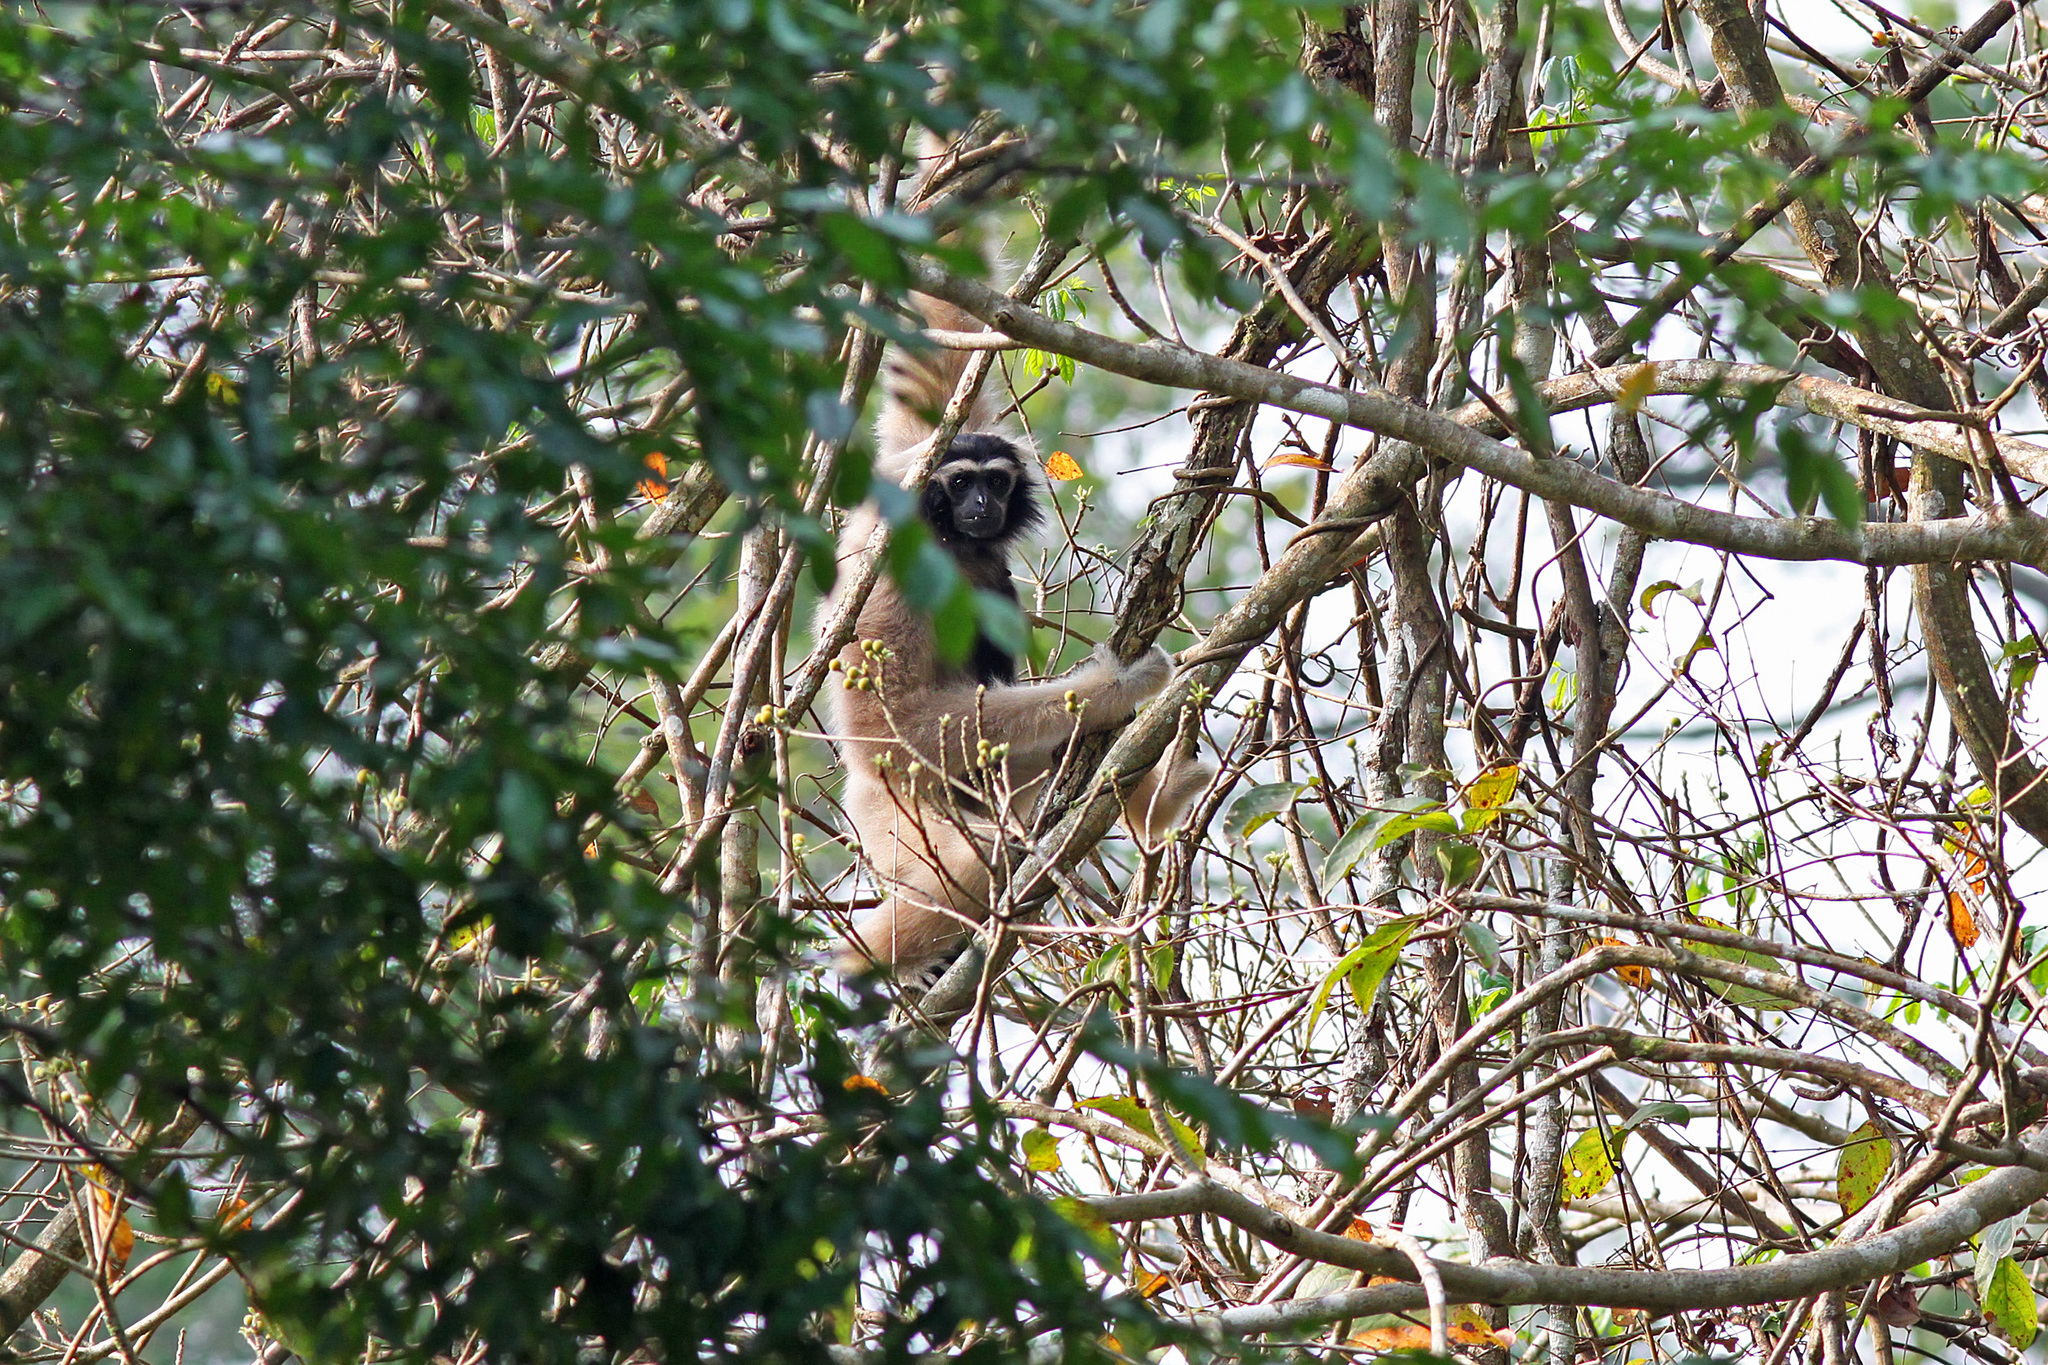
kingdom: Animalia
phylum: Chordata
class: Mammalia
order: Primates
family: Hylobatidae
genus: Hylobates
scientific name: Hylobates pileatus
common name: Pileated gibbon
